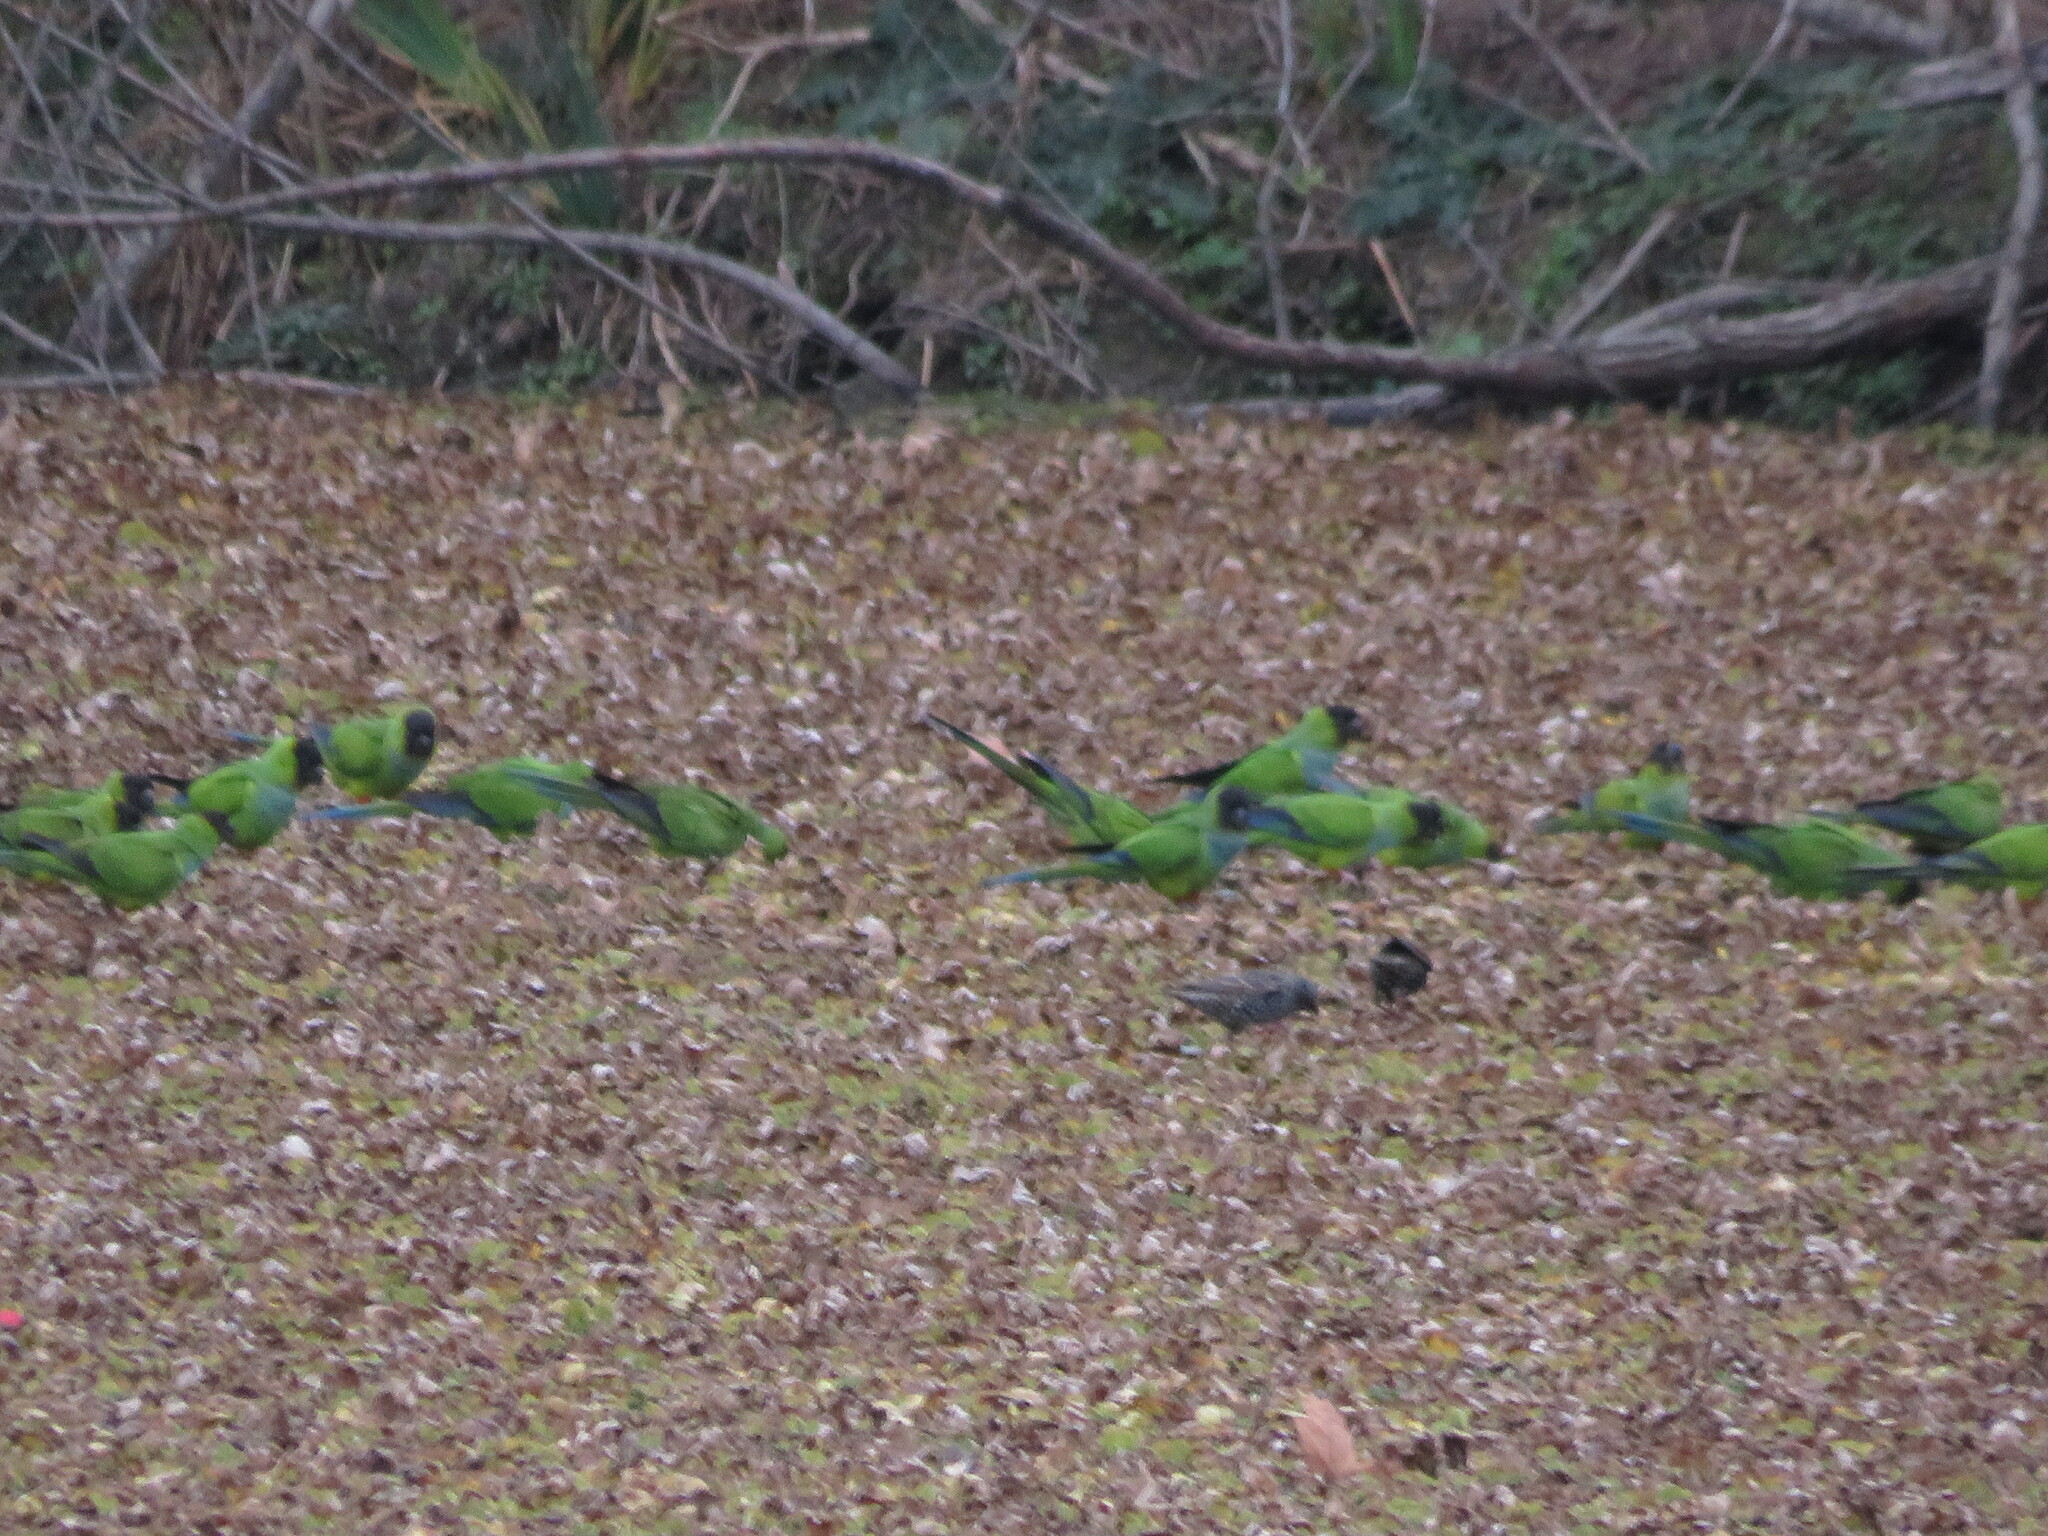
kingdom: Animalia
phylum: Chordata
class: Aves
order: Psittaciformes
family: Psittacidae
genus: Nandayus
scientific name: Nandayus nenday
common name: Nanday parakeet
